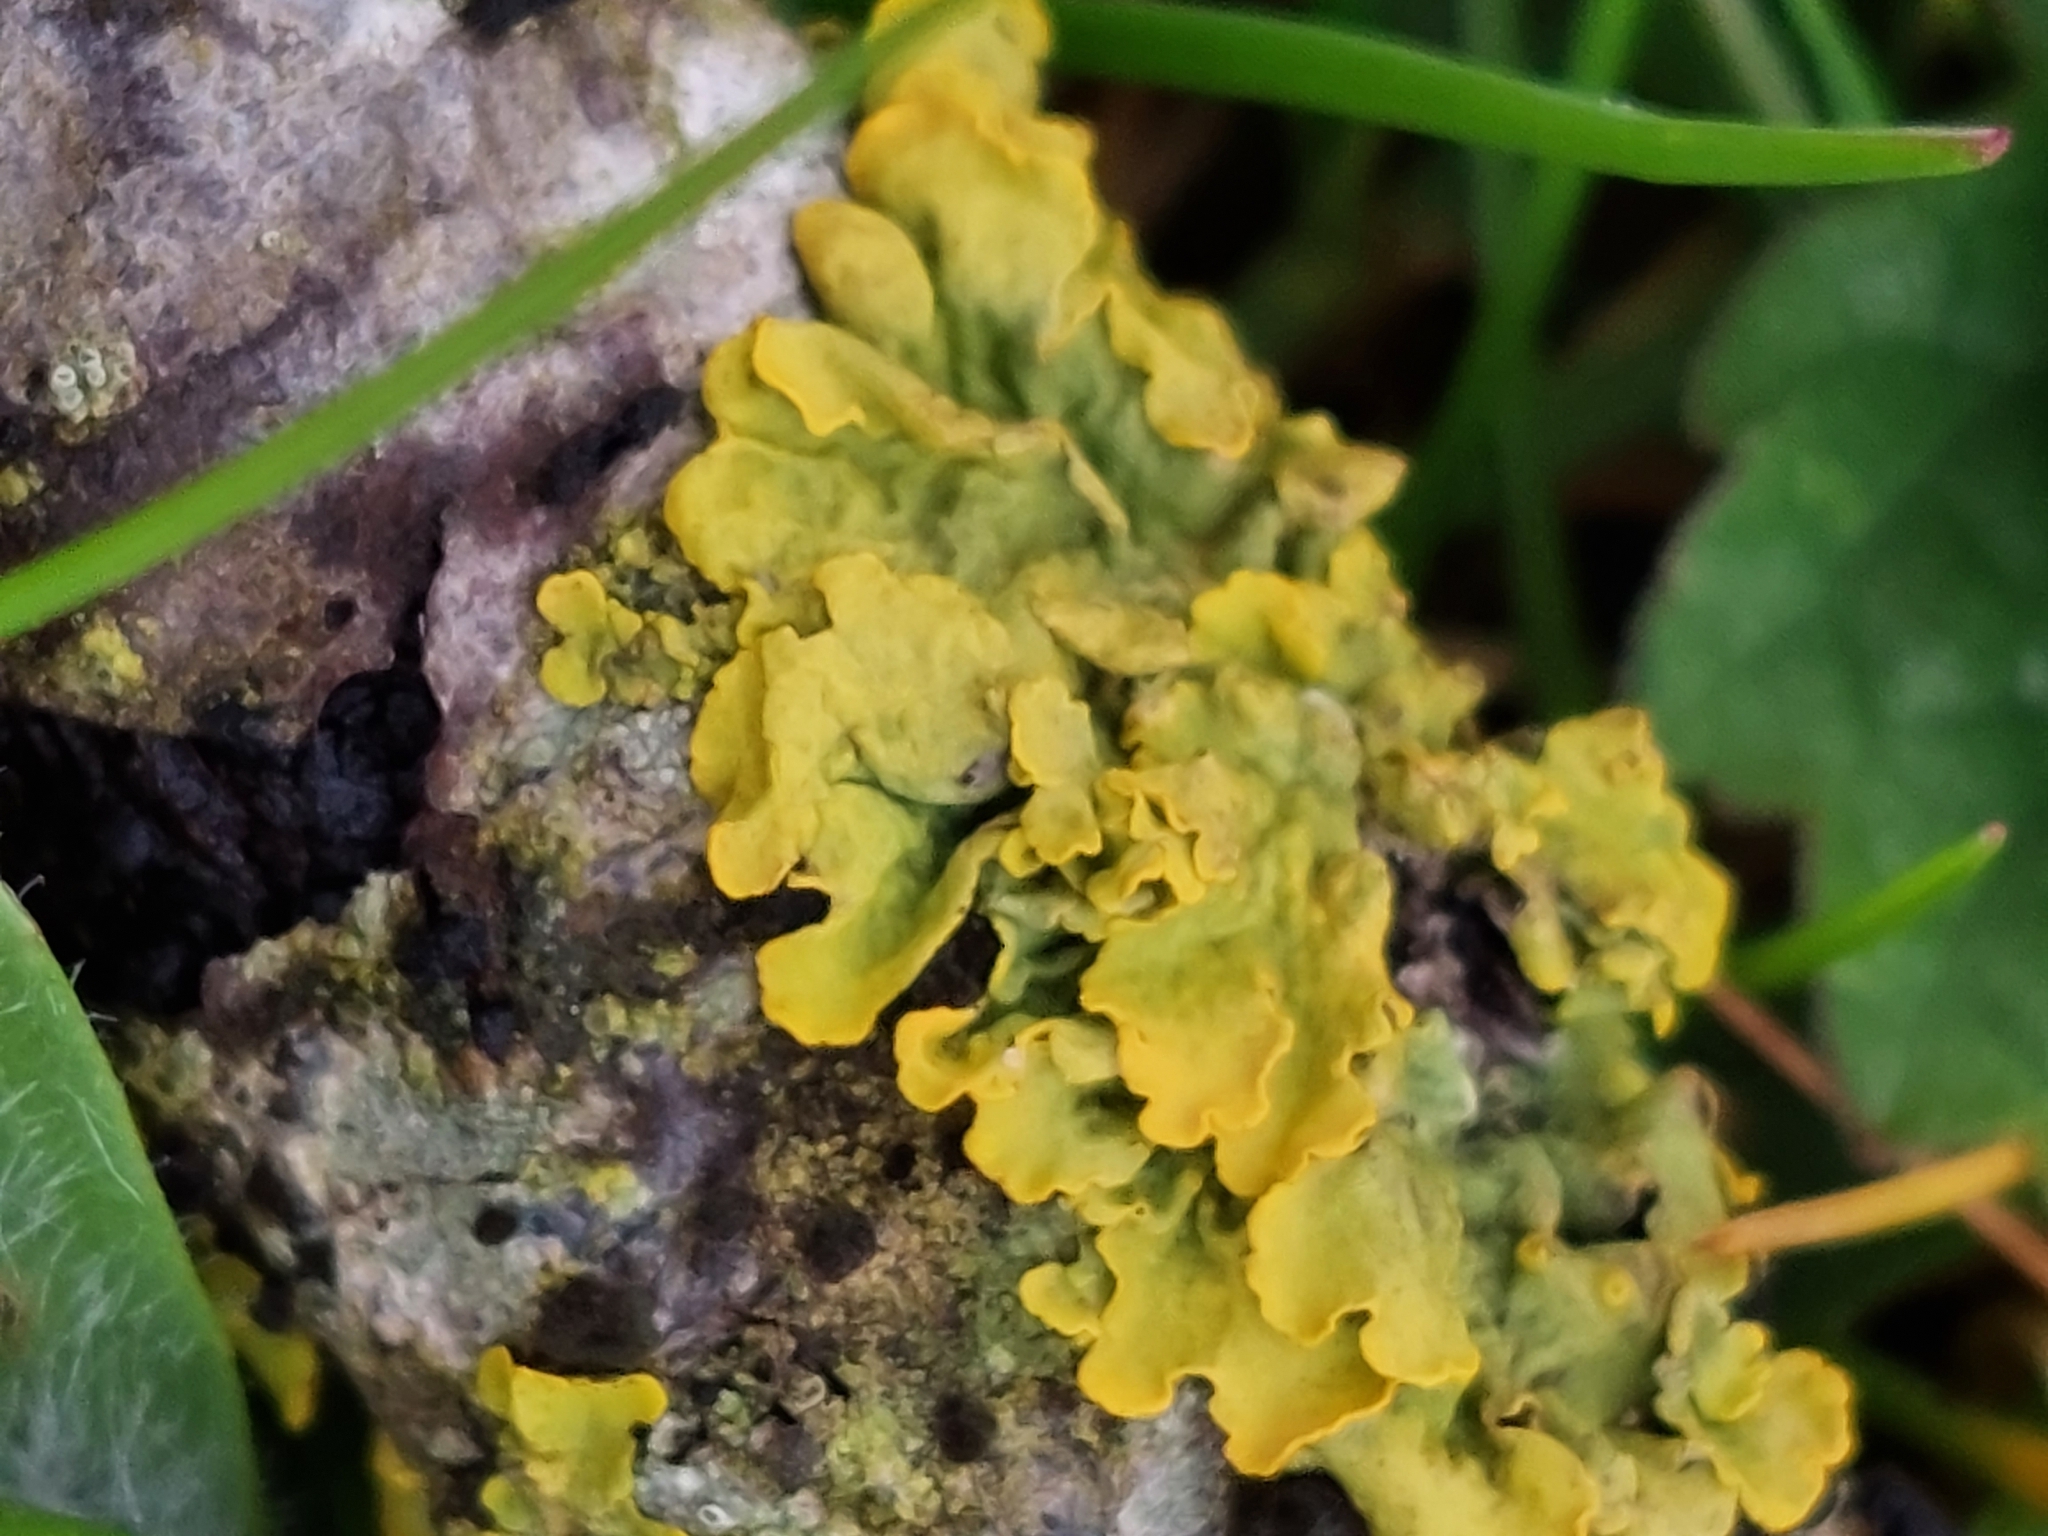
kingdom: Fungi
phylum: Ascomycota
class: Lecanoromycetes
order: Teloschistales
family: Teloschistaceae
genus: Xanthoria
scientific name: Xanthoria parietina
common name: Common orange lichen
